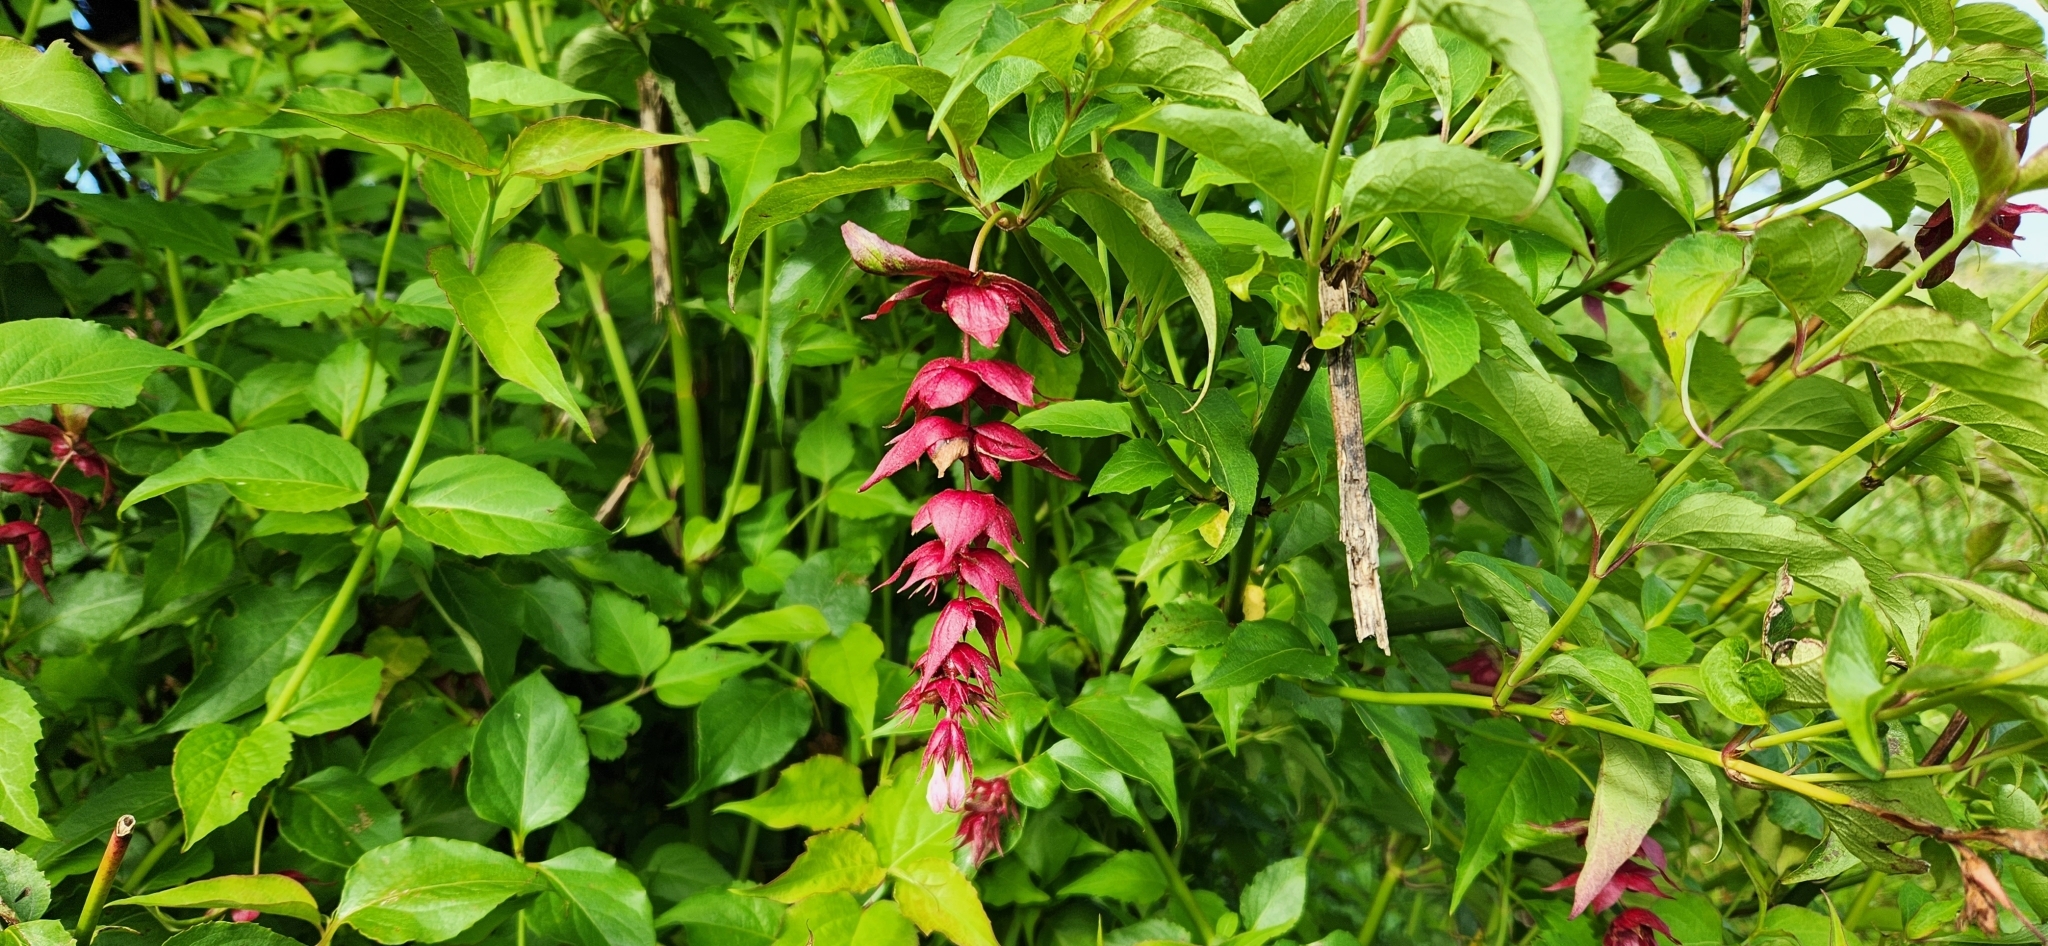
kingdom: Plantae
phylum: Tracheophyta
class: Magnoliopsida
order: Dipsacales
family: Caprifoliaceae
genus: Leycesteria
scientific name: Leycesteria formosa
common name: Himalayan honeysuckle
